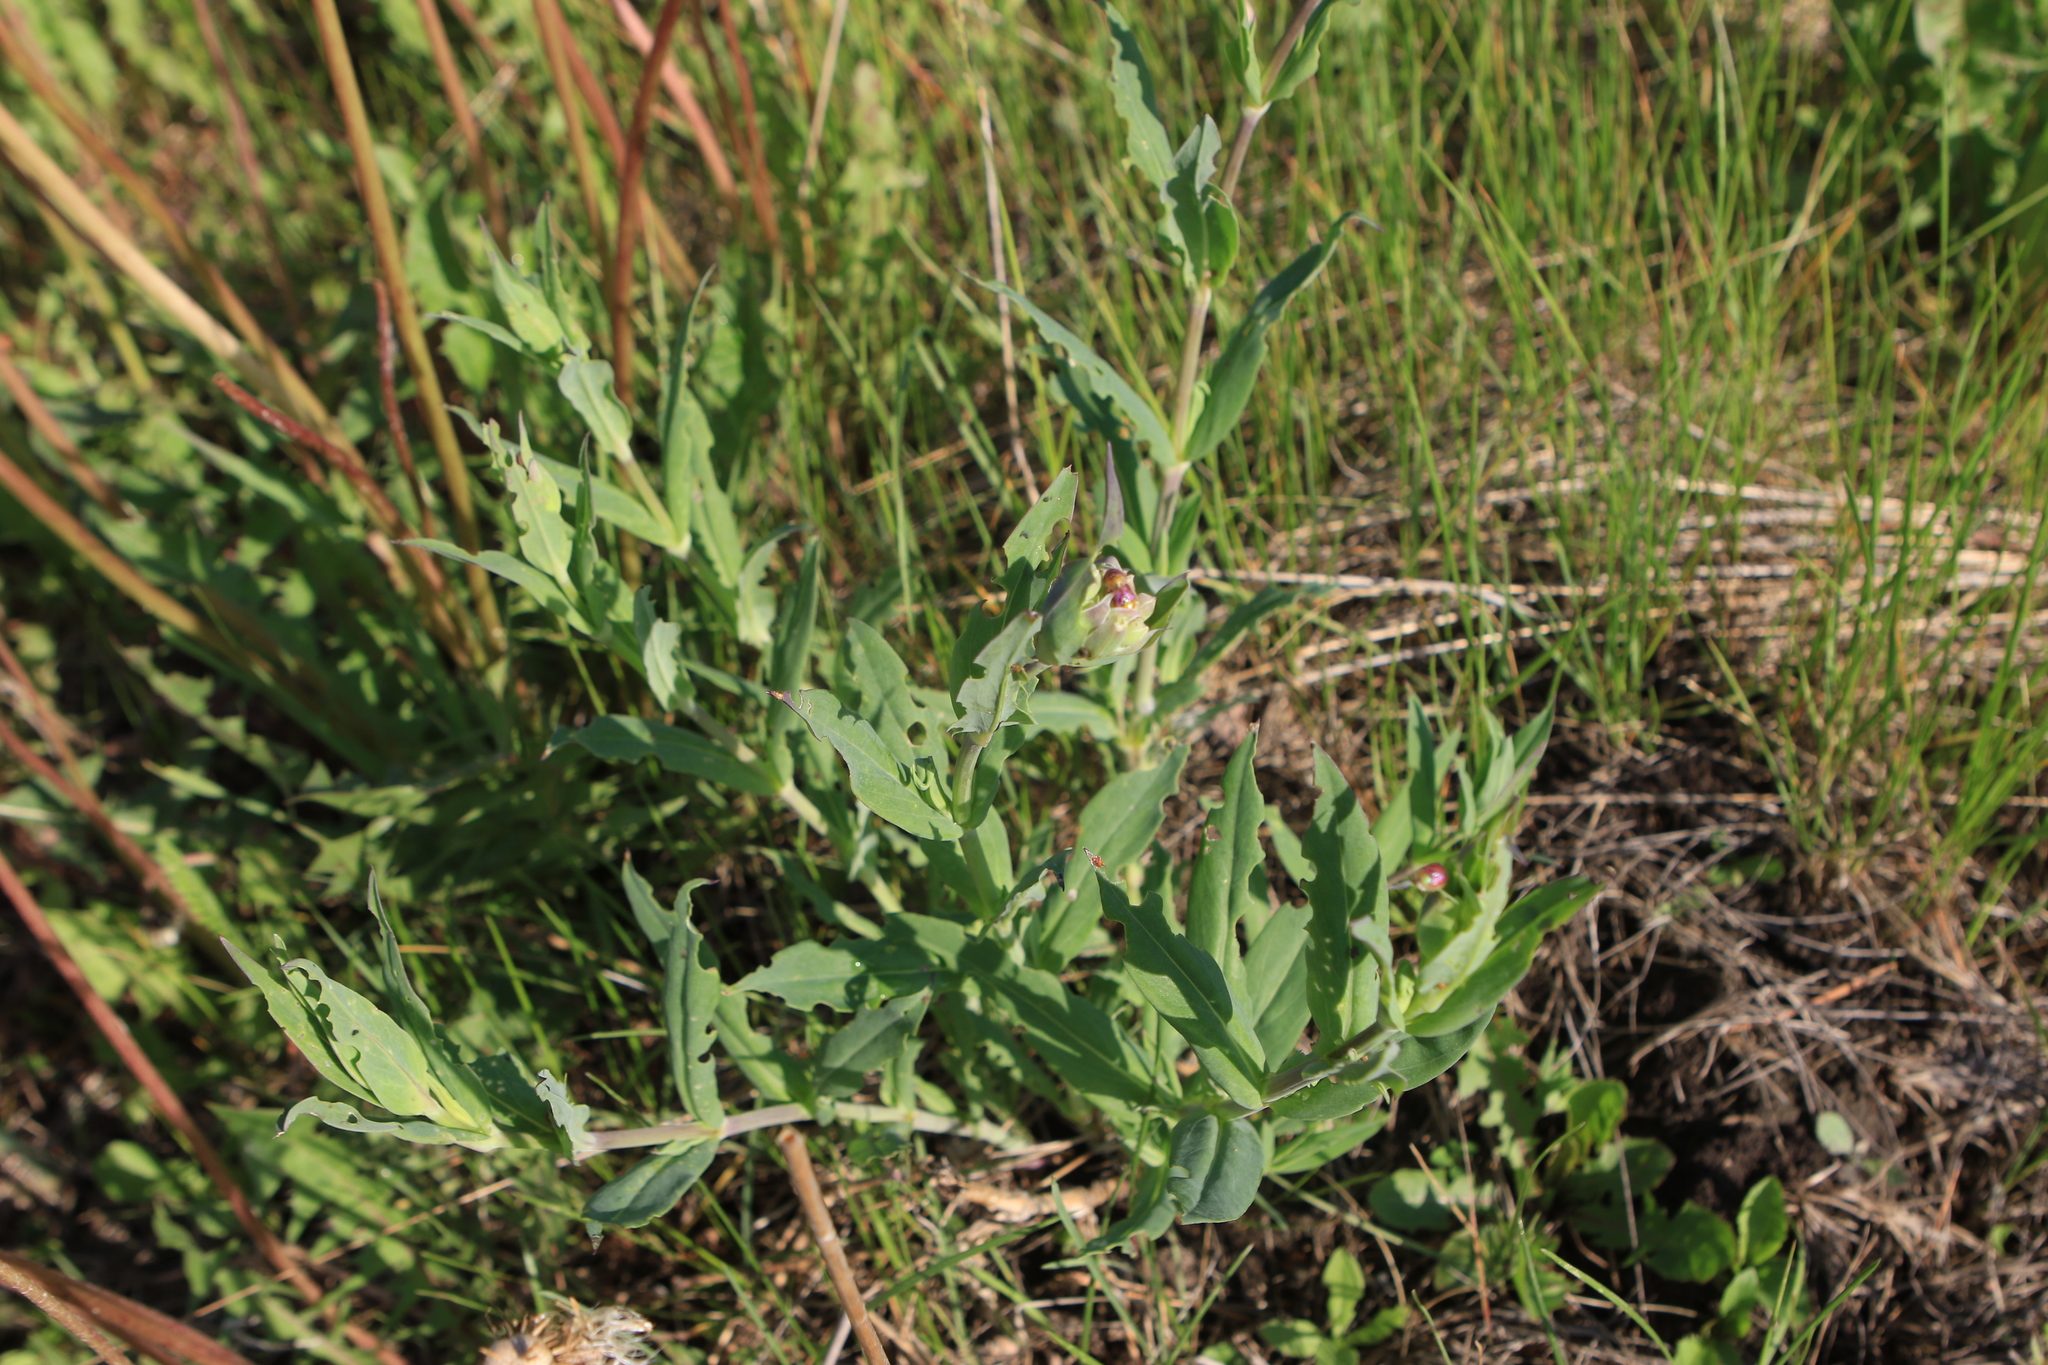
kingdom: Plantae
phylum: Tracheophyta
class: Magnoliopsida
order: Caryophyllales
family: Caryophyllaceae
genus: Silene
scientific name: Silene vulgaris
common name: Bladder campion
